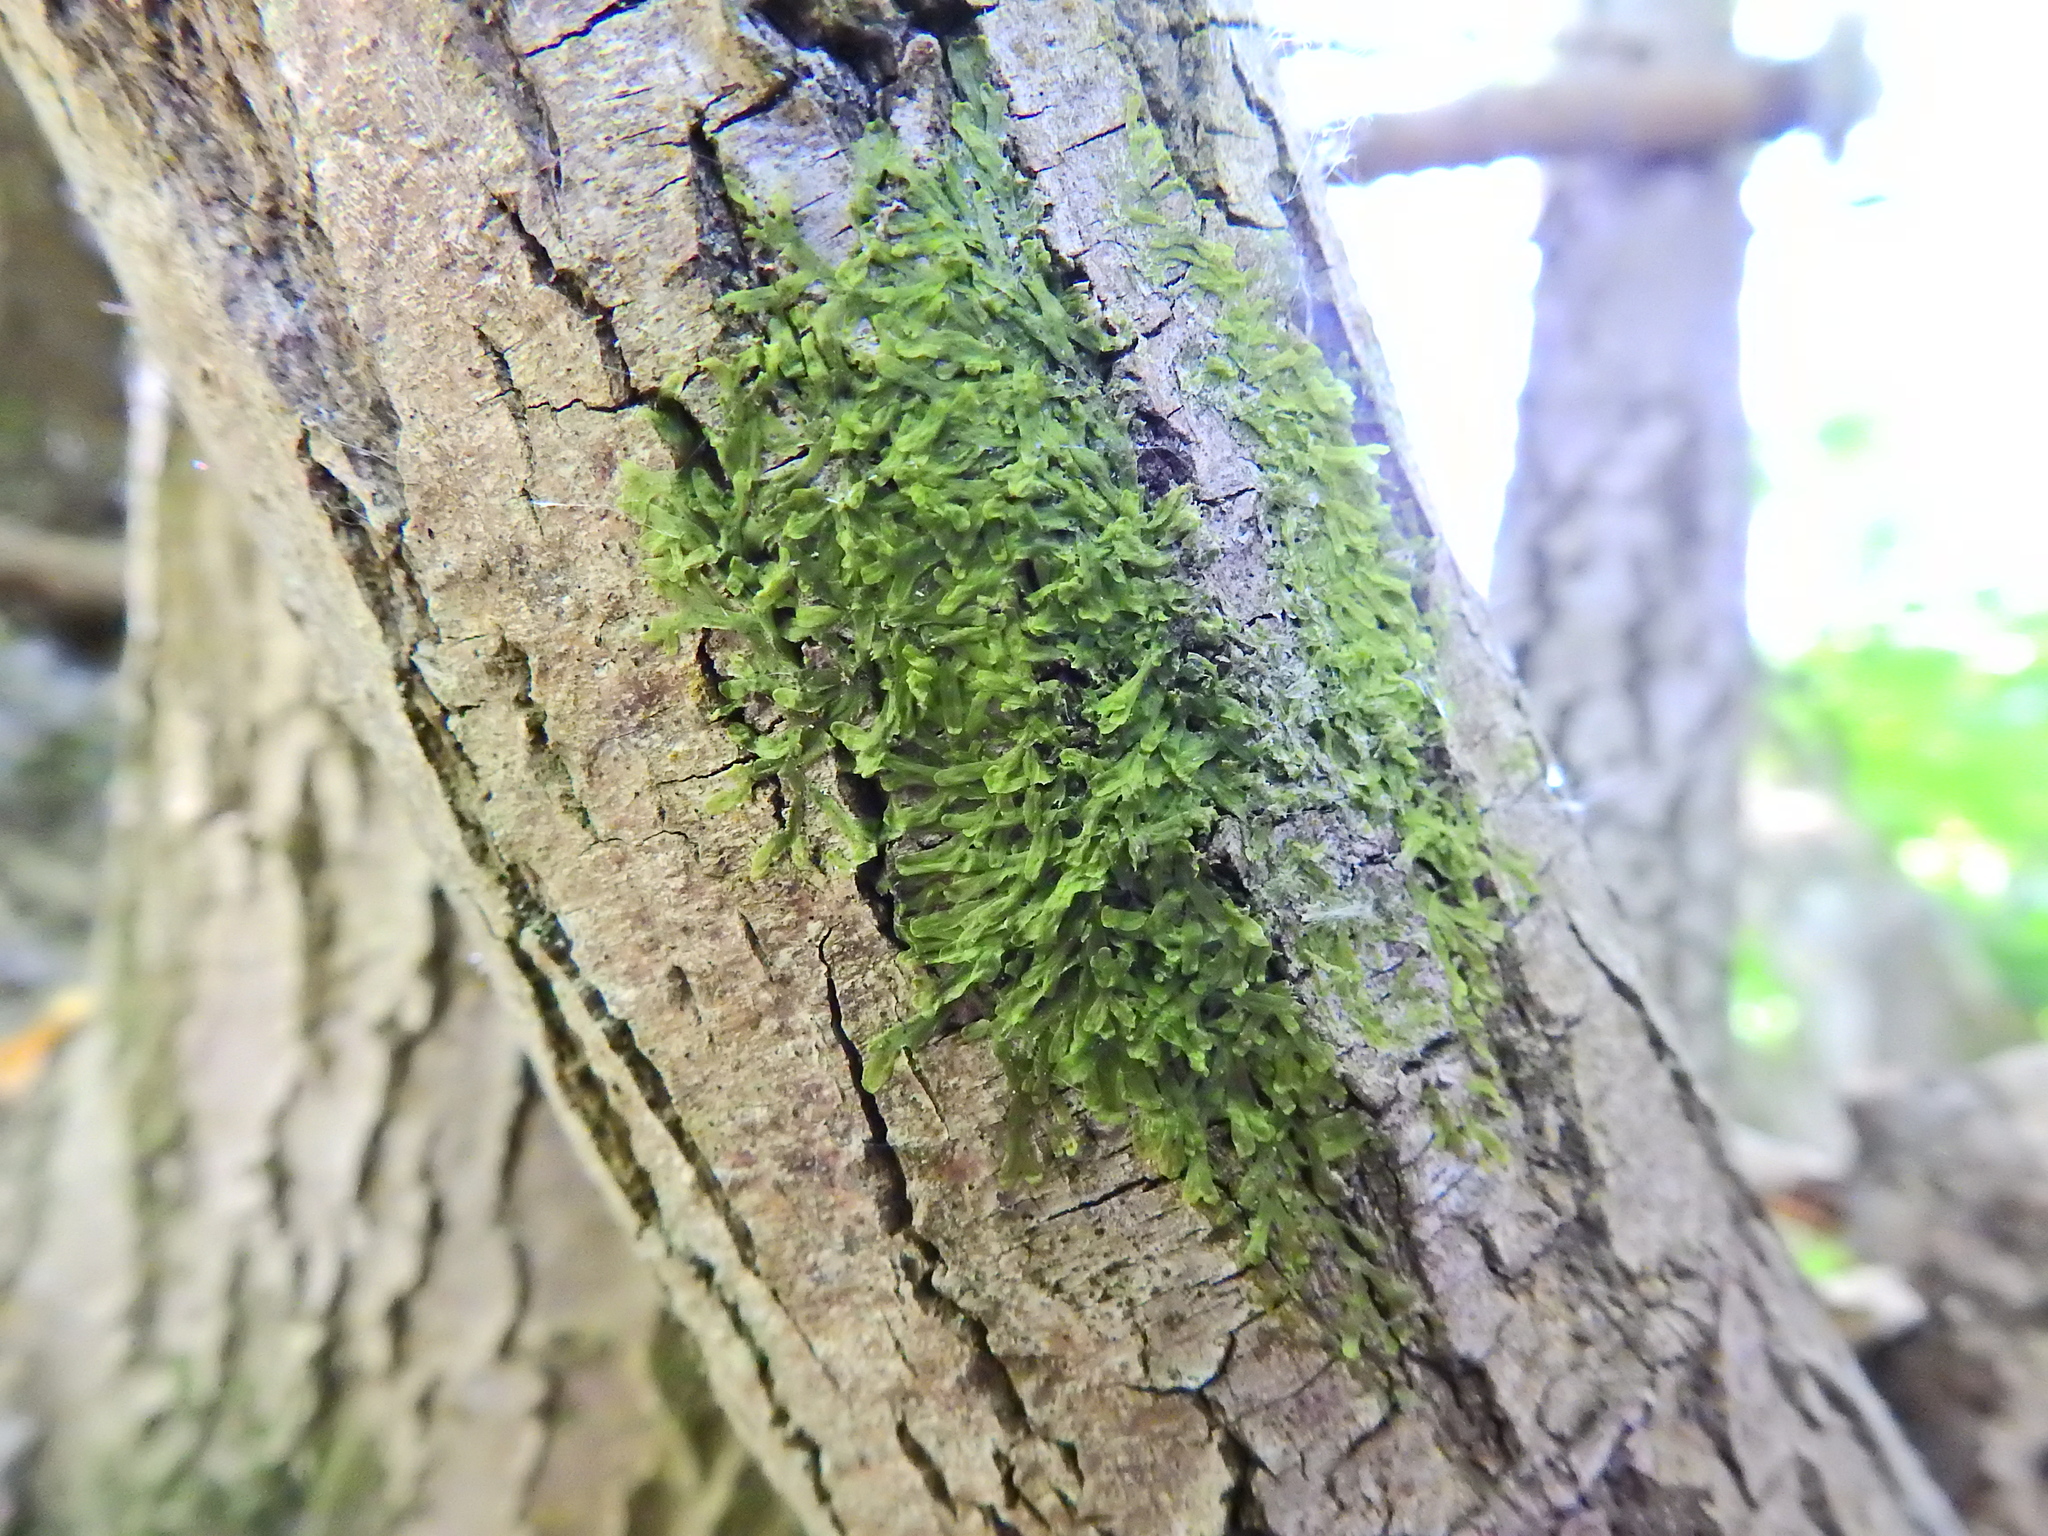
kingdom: Plantae
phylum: Marchantiophyta
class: Jungermanniopsida
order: Metzgeriales
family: Metzgeriaceae
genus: Metzgeria
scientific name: Metzgeria furcata
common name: Forked veilwort
